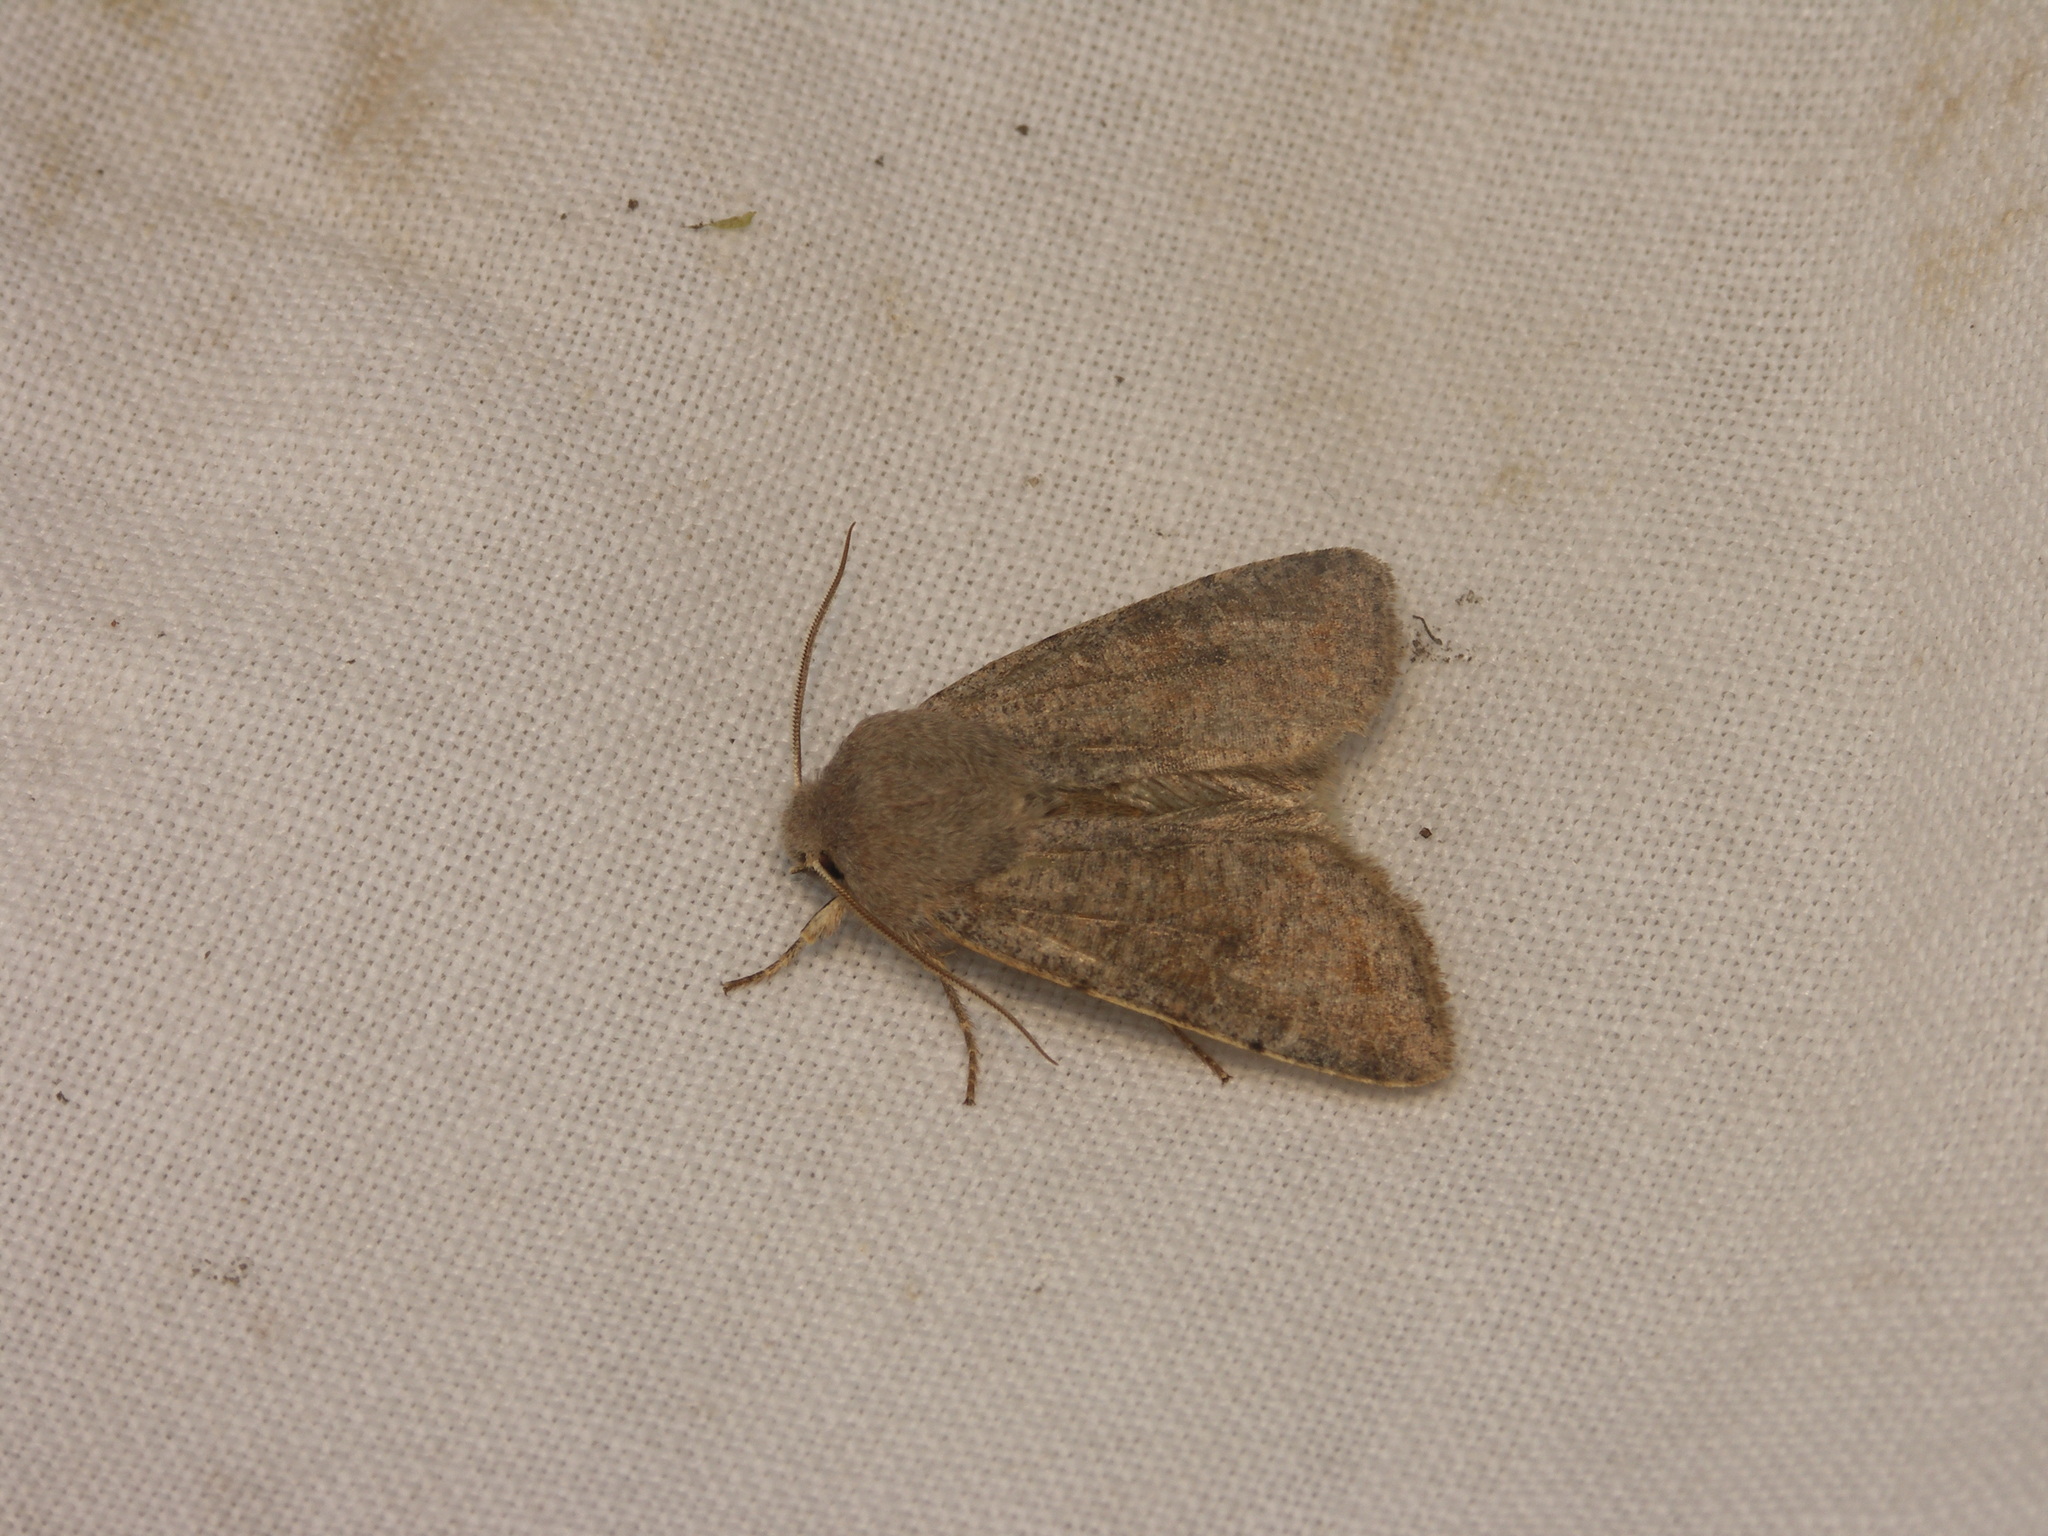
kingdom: Animalia
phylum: Arthropoda
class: Insecta
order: Lepidoptera
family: Noctuidae
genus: Orthosia
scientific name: Orthosia incerta
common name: Clouded drab
